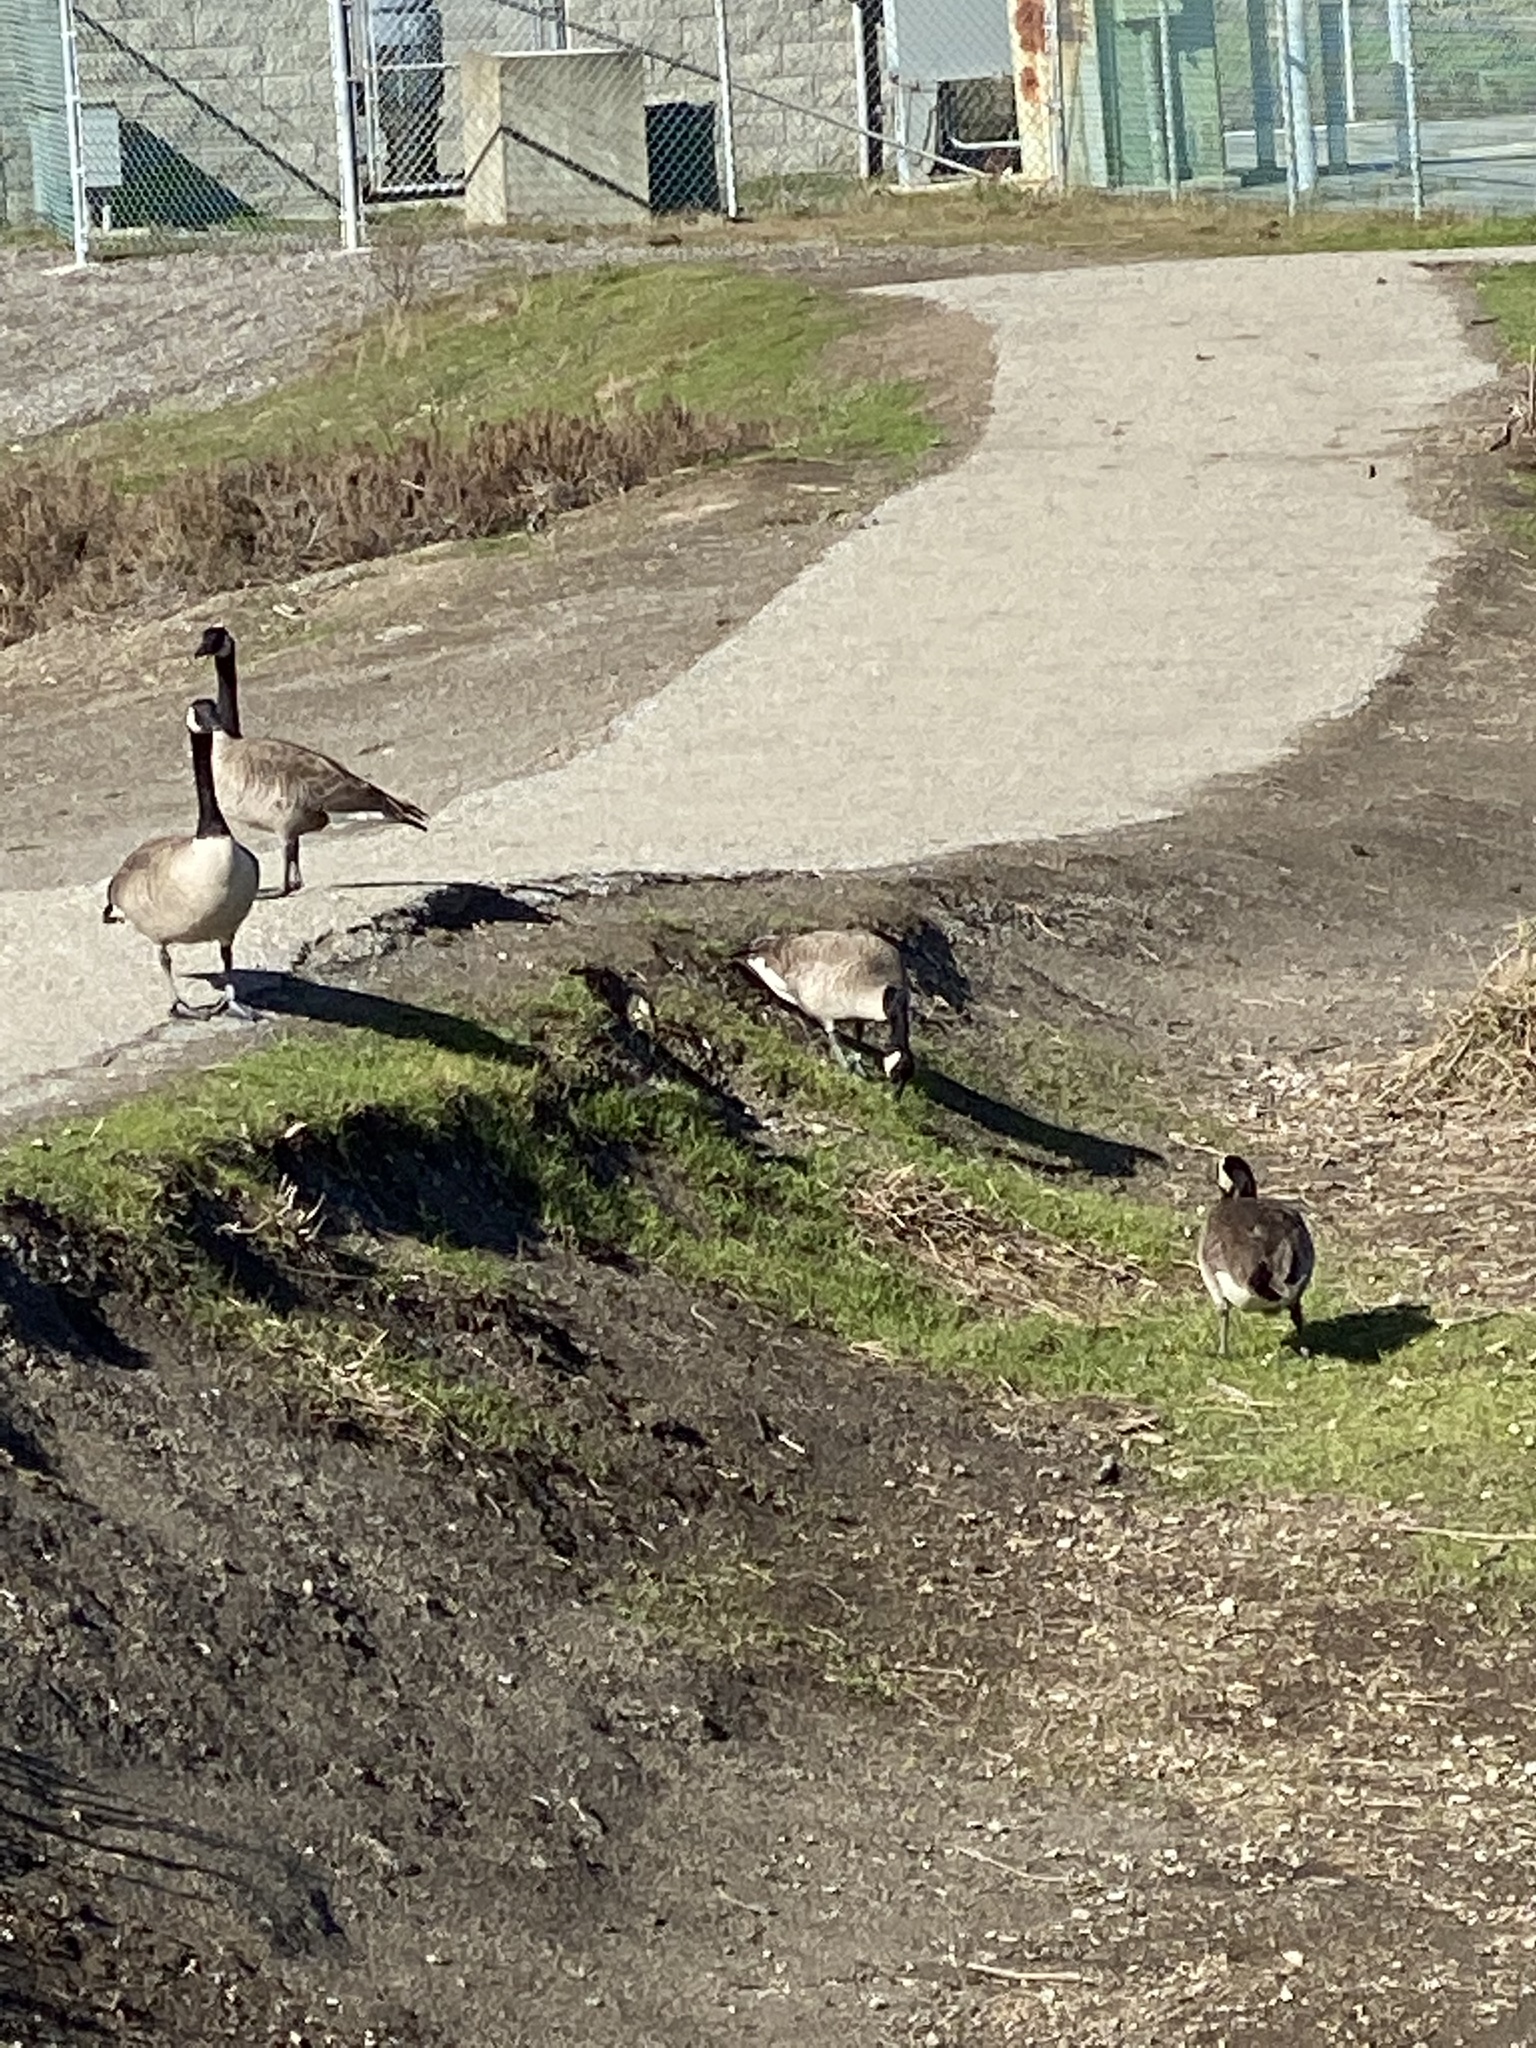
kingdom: Animalia
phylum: Chordata
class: Aves
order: Anseriformes
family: Anatidae
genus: Branta
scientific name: Branta canadensis
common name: Canada goose
